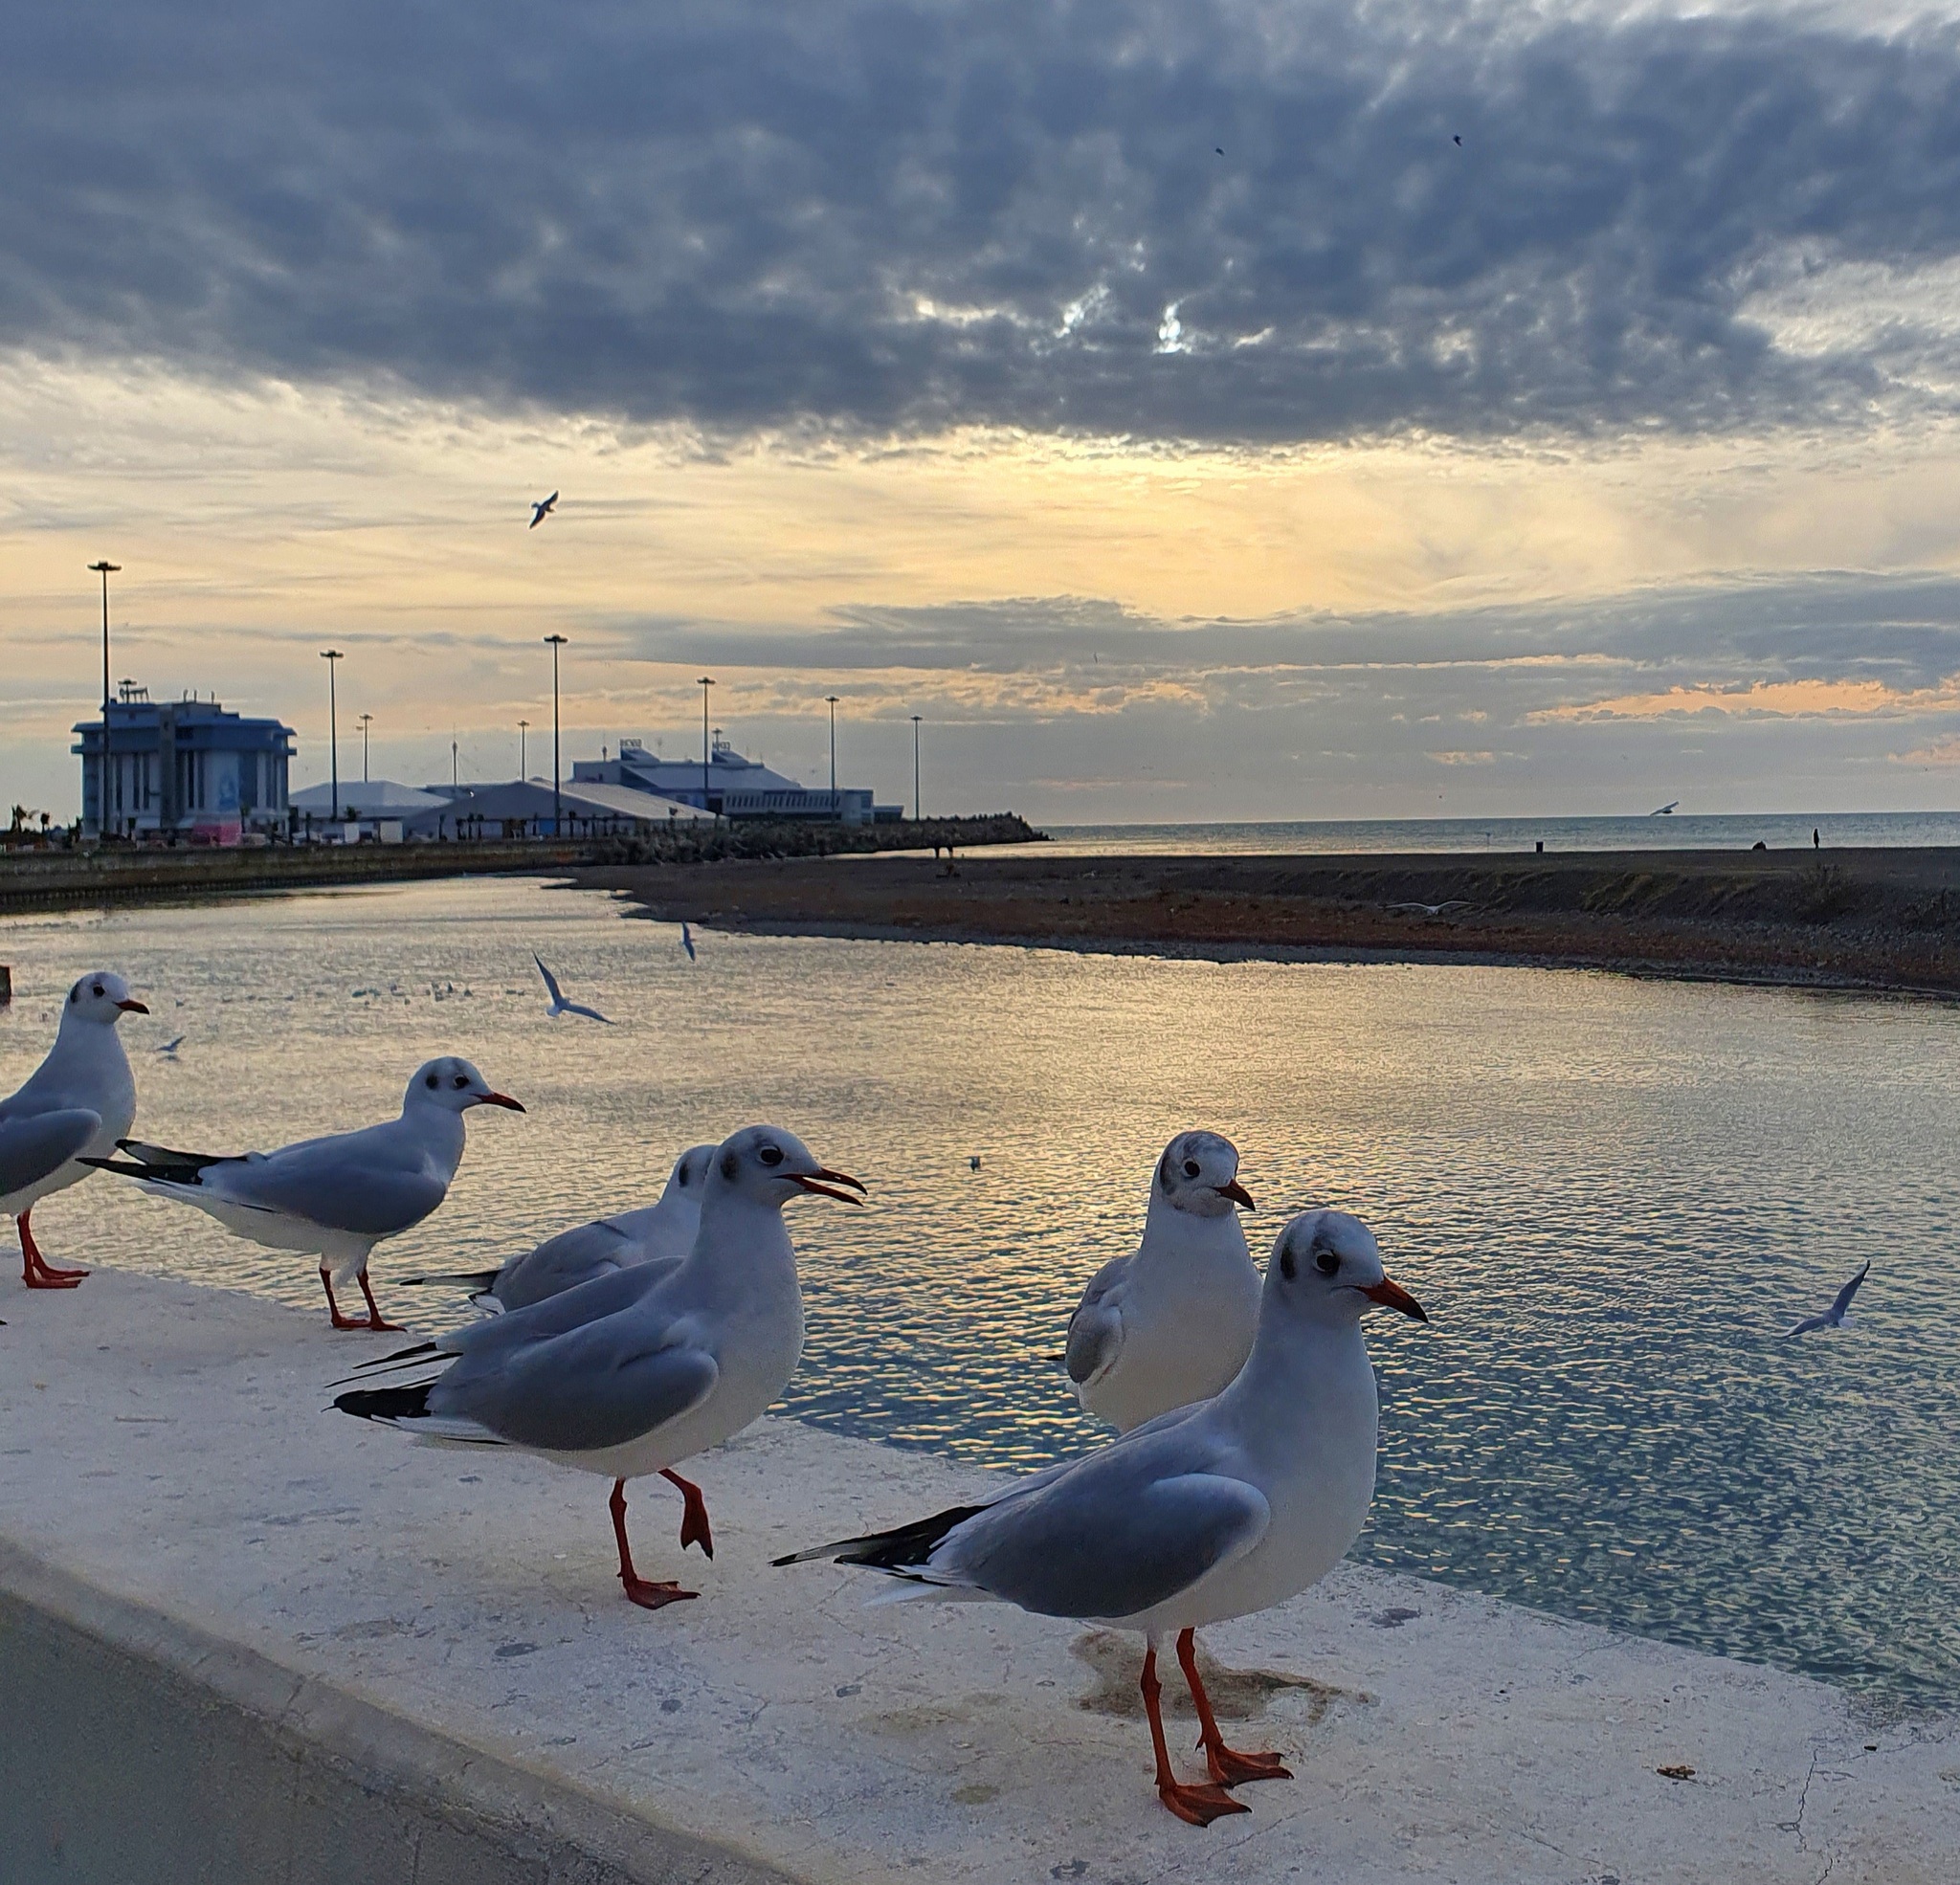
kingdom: Animalia
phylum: Chordata
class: Aves
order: Charadriiformes
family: Laridae
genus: Chroicocephalus
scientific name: Chroicocephalus ridibundus
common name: Black-headed gull
